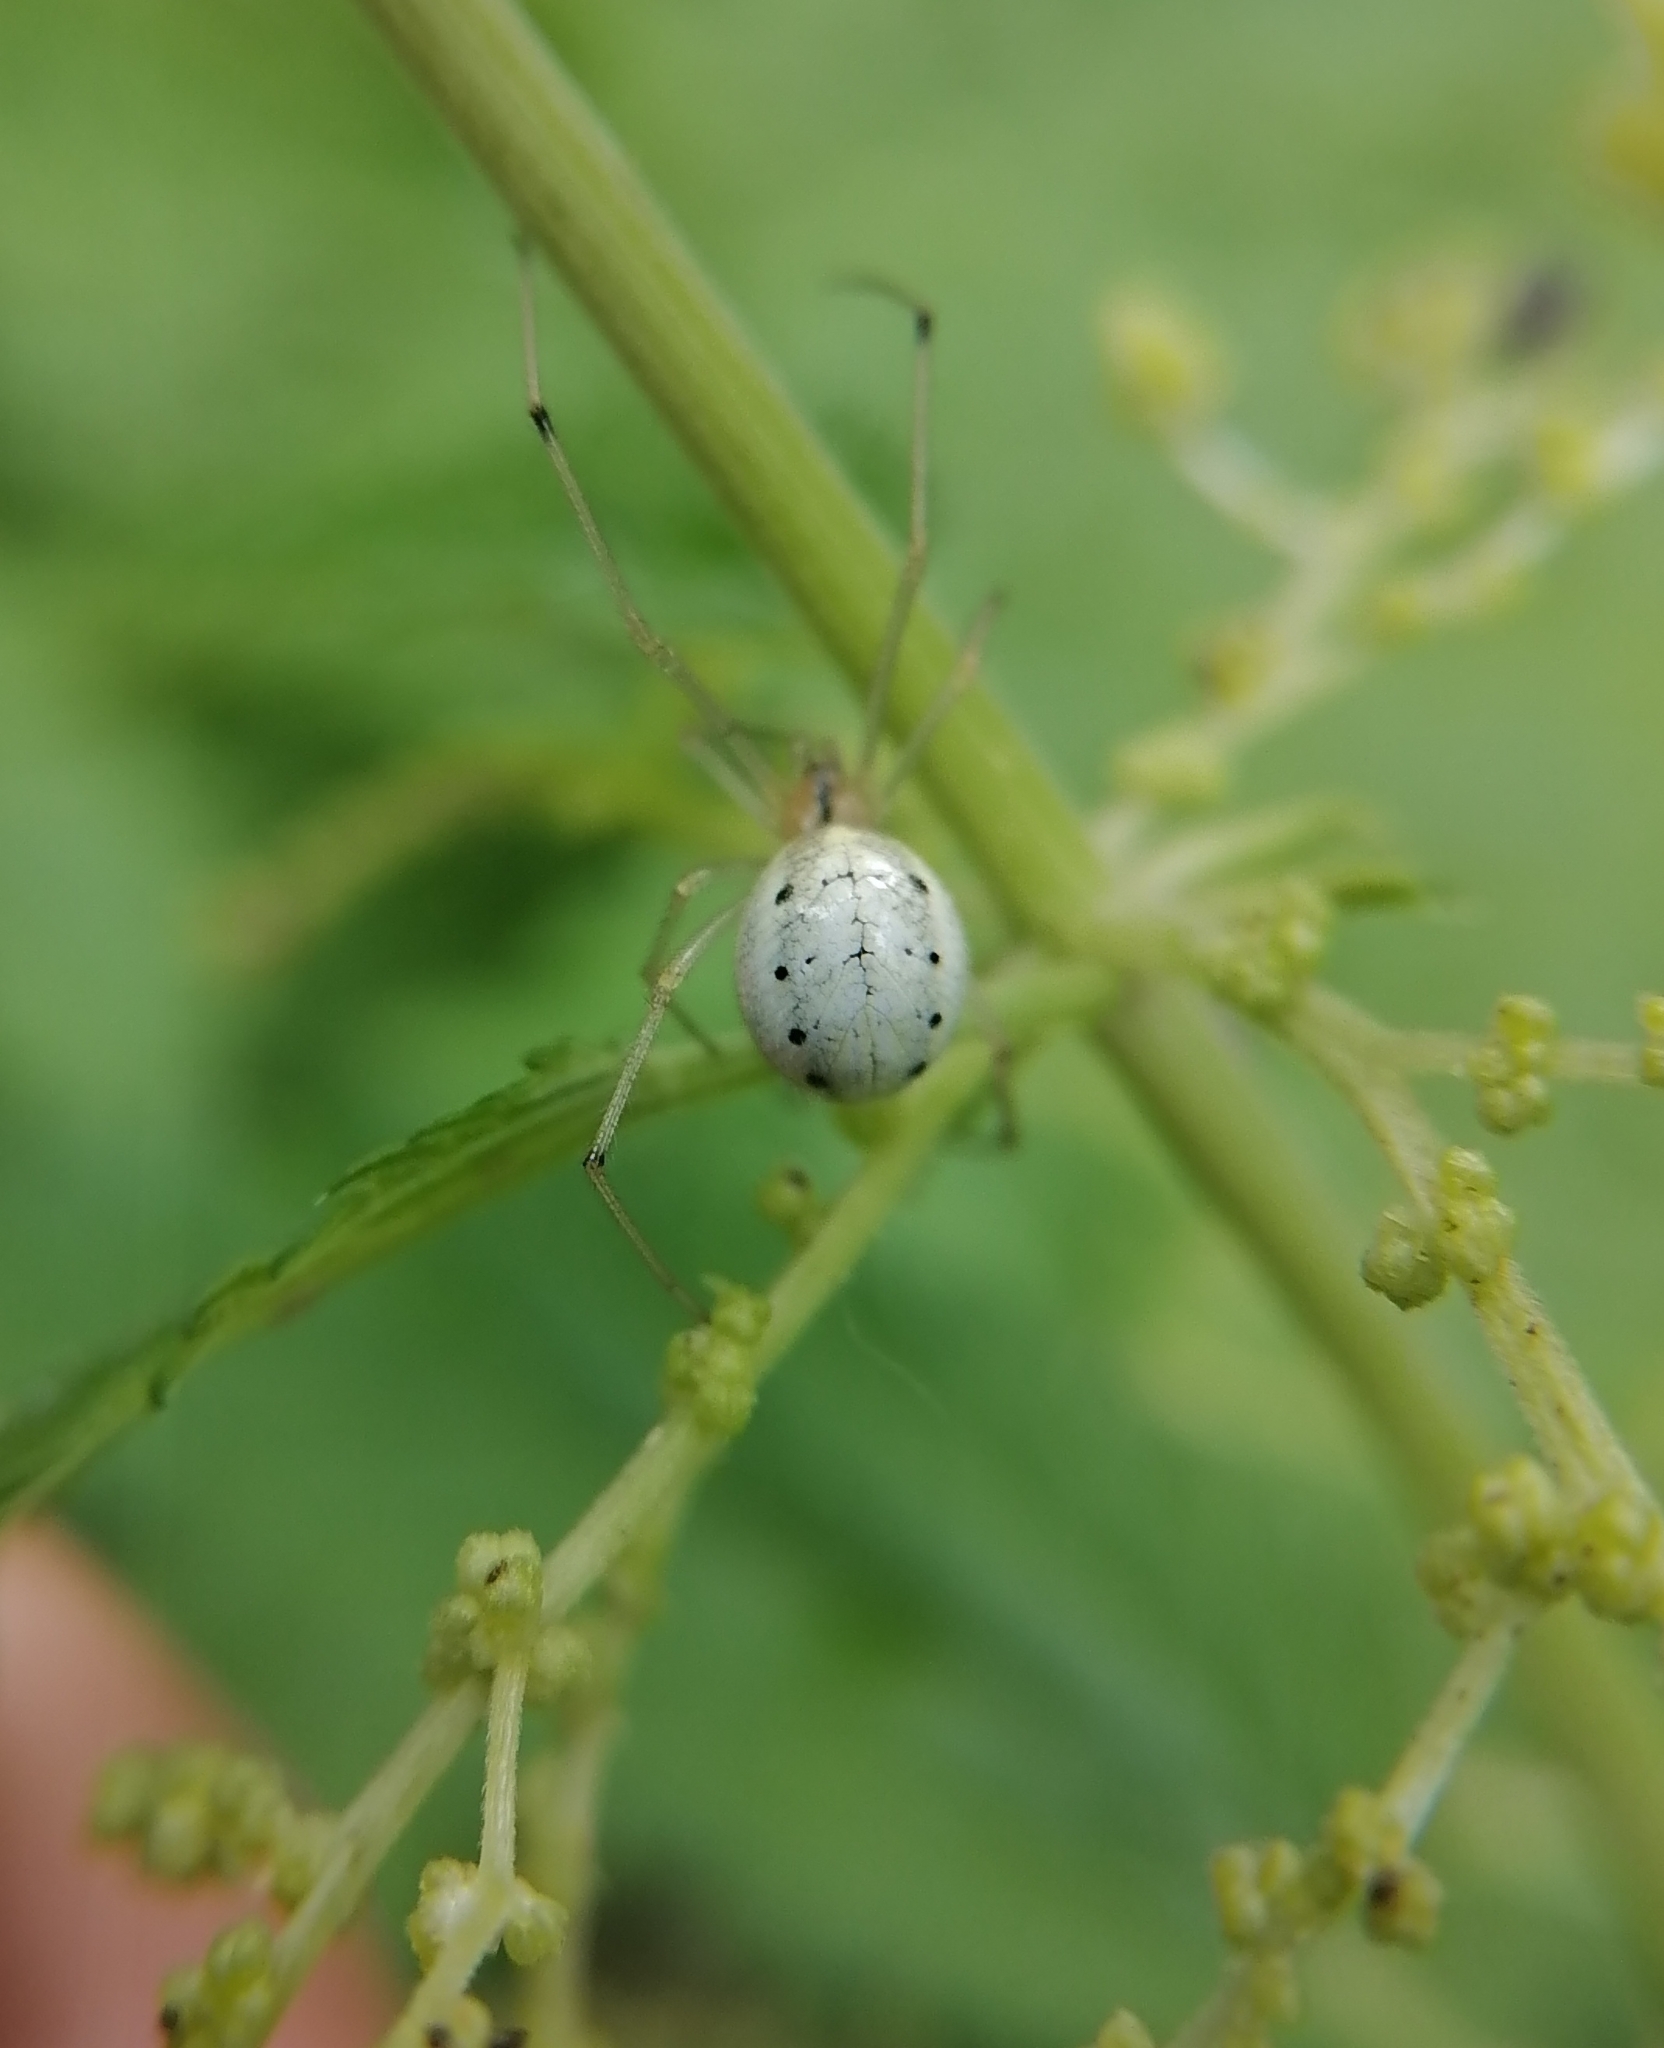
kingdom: Animalia
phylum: Arthropoda
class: Arachnida
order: Araneae
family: Theridiidae
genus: Enoplognatha
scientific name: Enoplognatha ovata
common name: Common candy-striped spider
